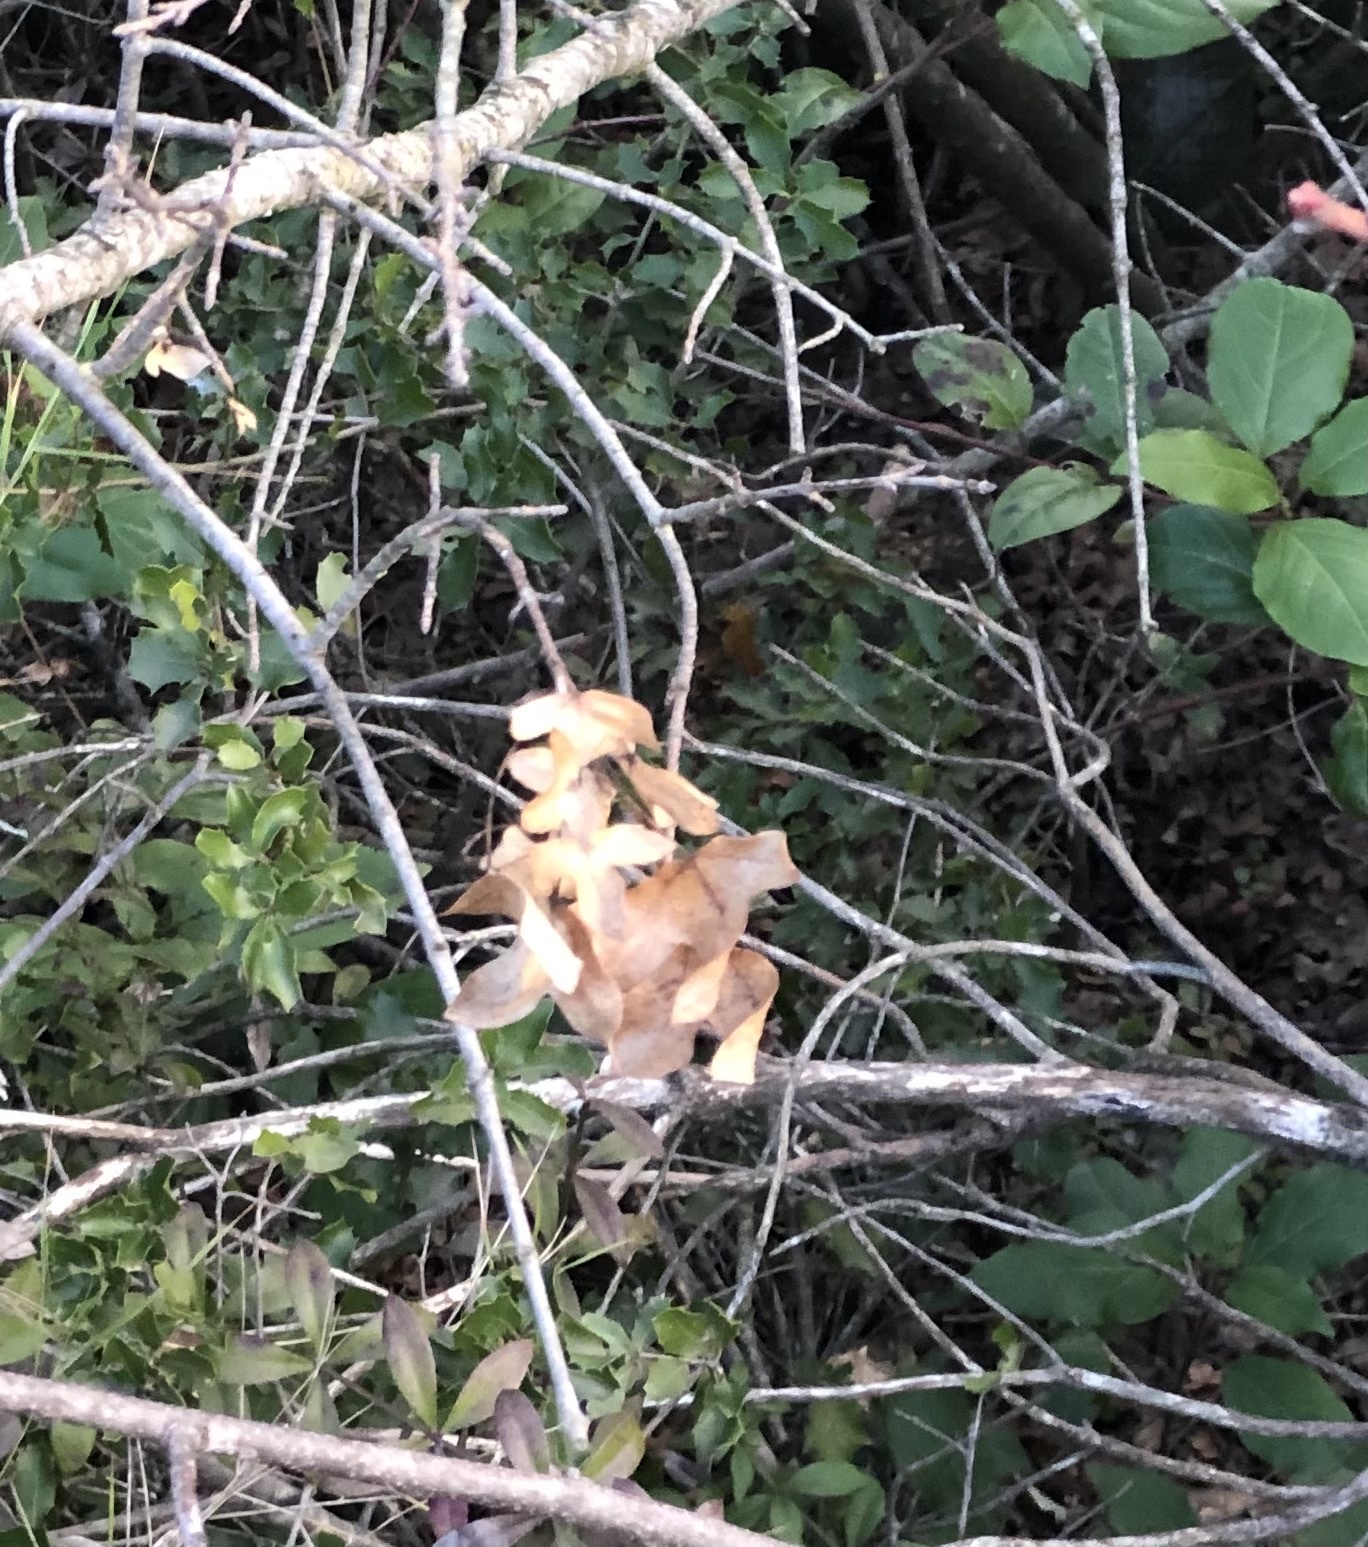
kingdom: Plantae
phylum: Tracheophyta
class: Magnoliopsida
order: Sapindales
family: Sapindaceae
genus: Acer
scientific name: Acer monspessulanum
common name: Montpellier maple
